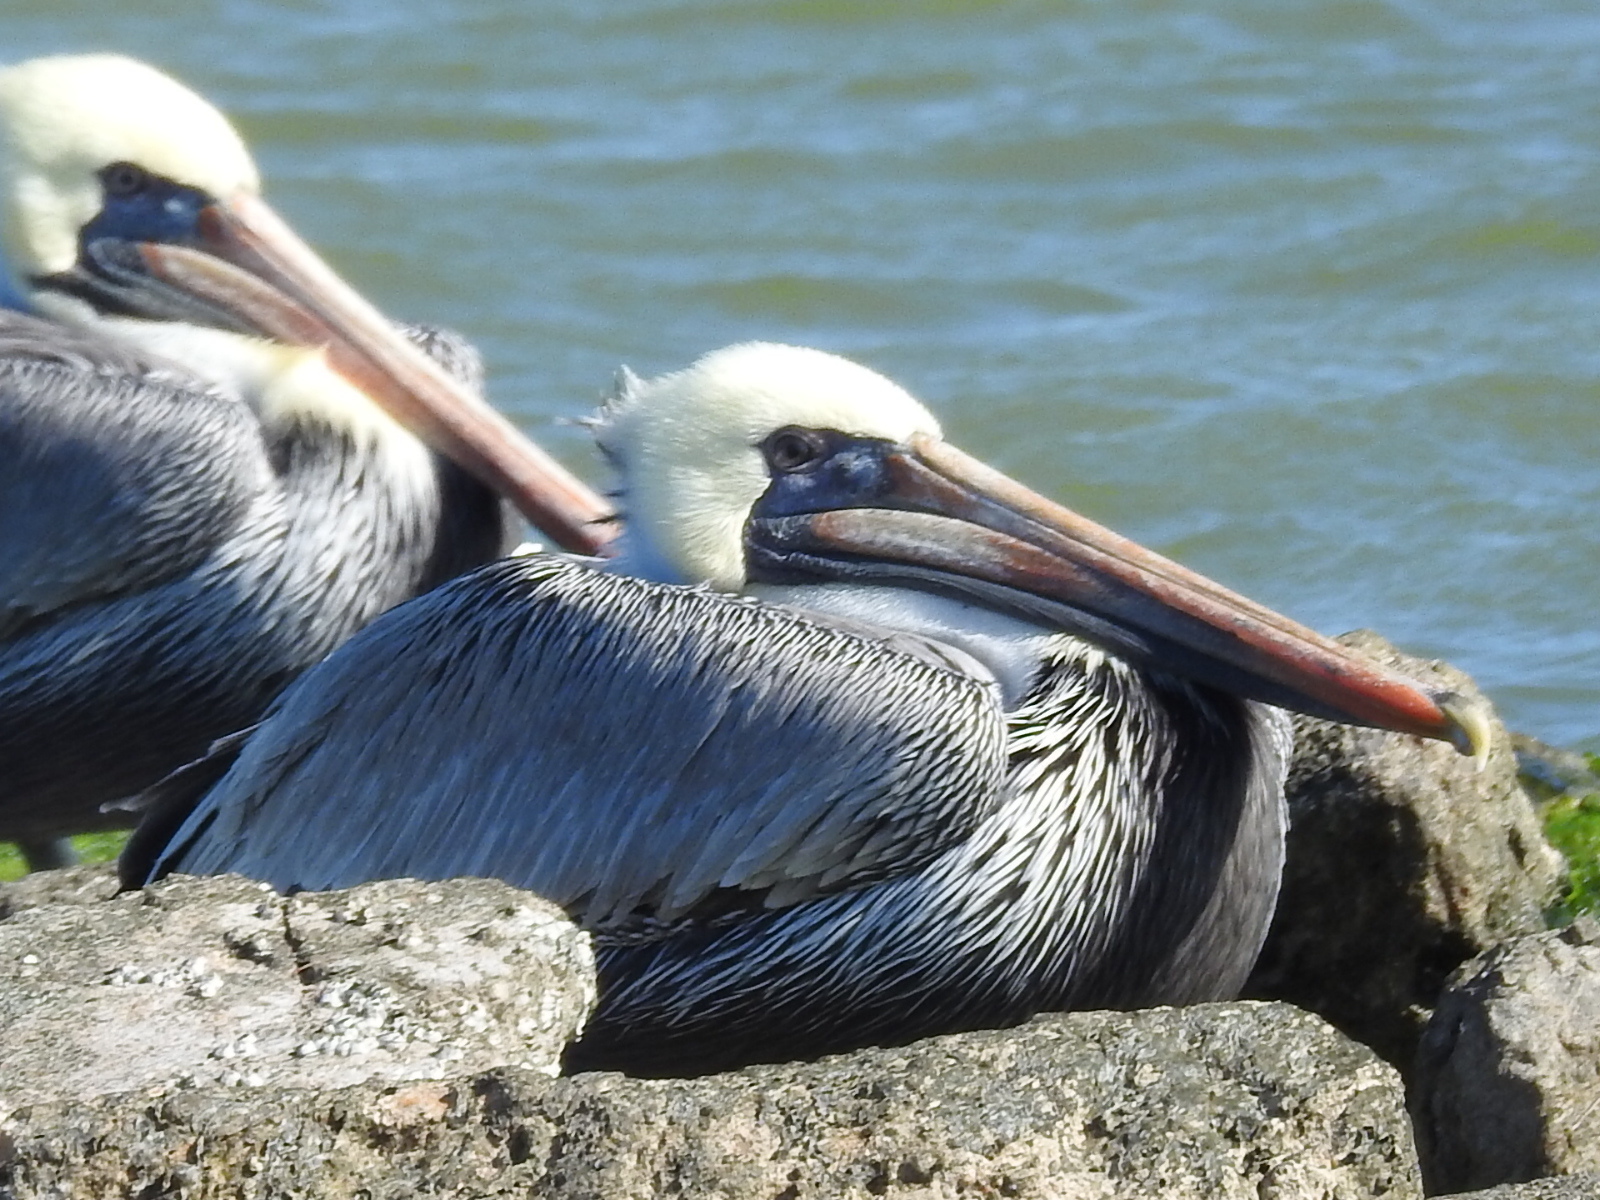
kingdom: Animalia
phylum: Chordata
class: Aves
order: Pelecaniformes
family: Pelecanidae
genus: Pelecanus
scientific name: Pelecanus occidentalis
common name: Brown pelican
